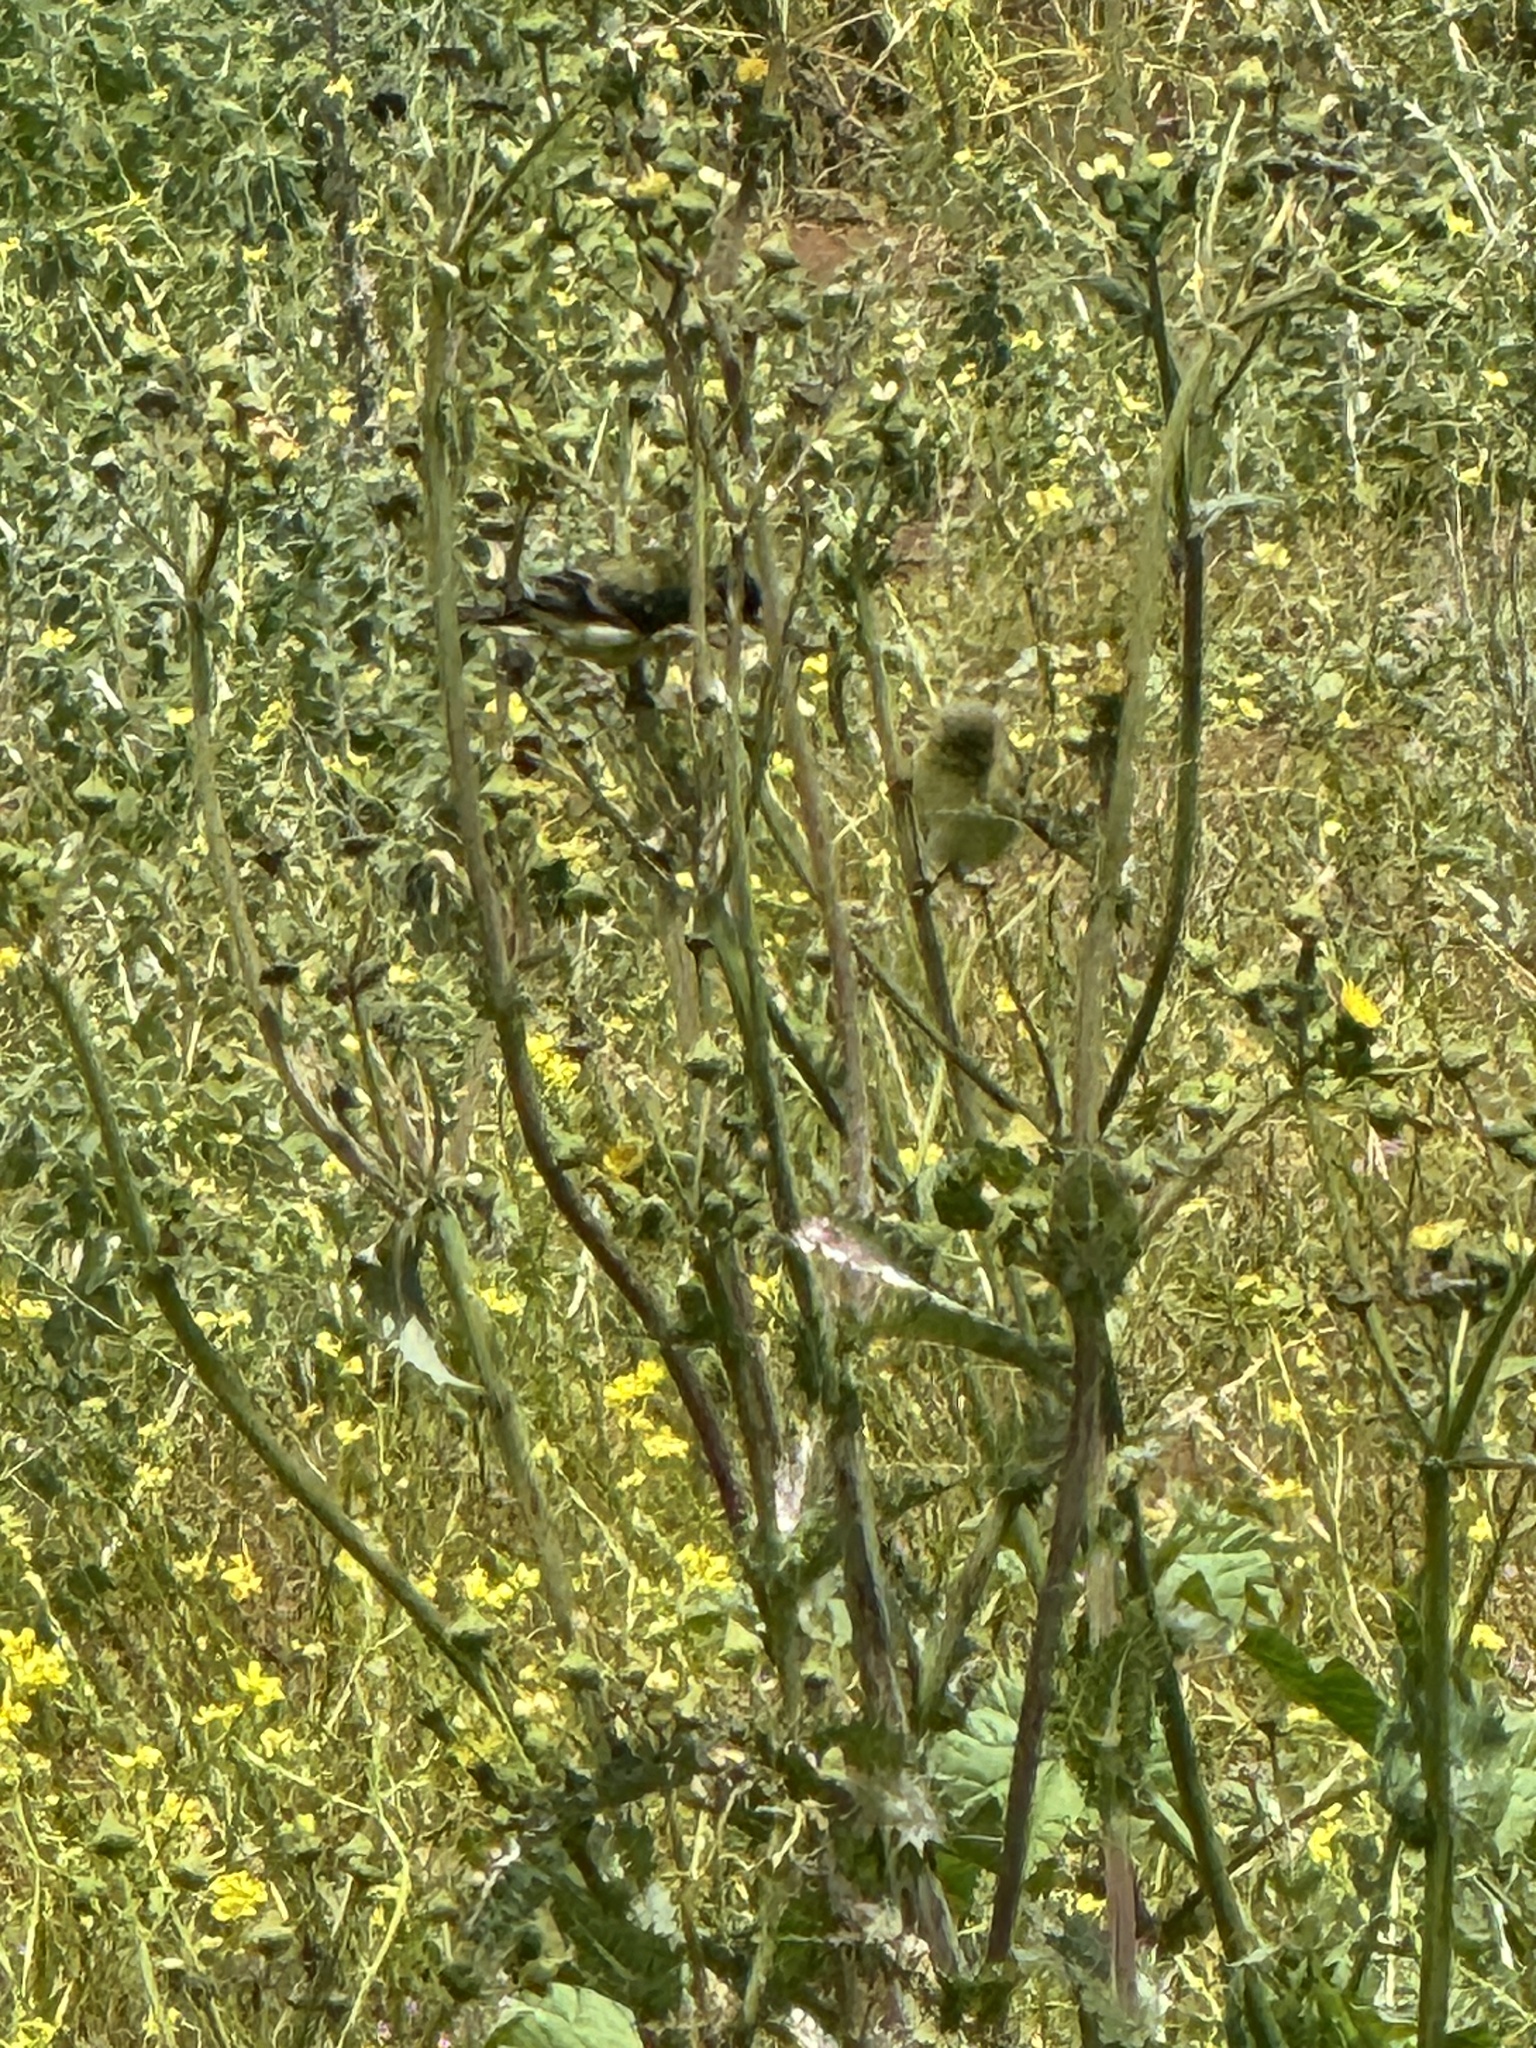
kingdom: Animalia
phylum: Chordata
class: Aves
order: Passeriformes
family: Fringillidae
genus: Spinus
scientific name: Spinus psaltria
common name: Lesser goldfinch
